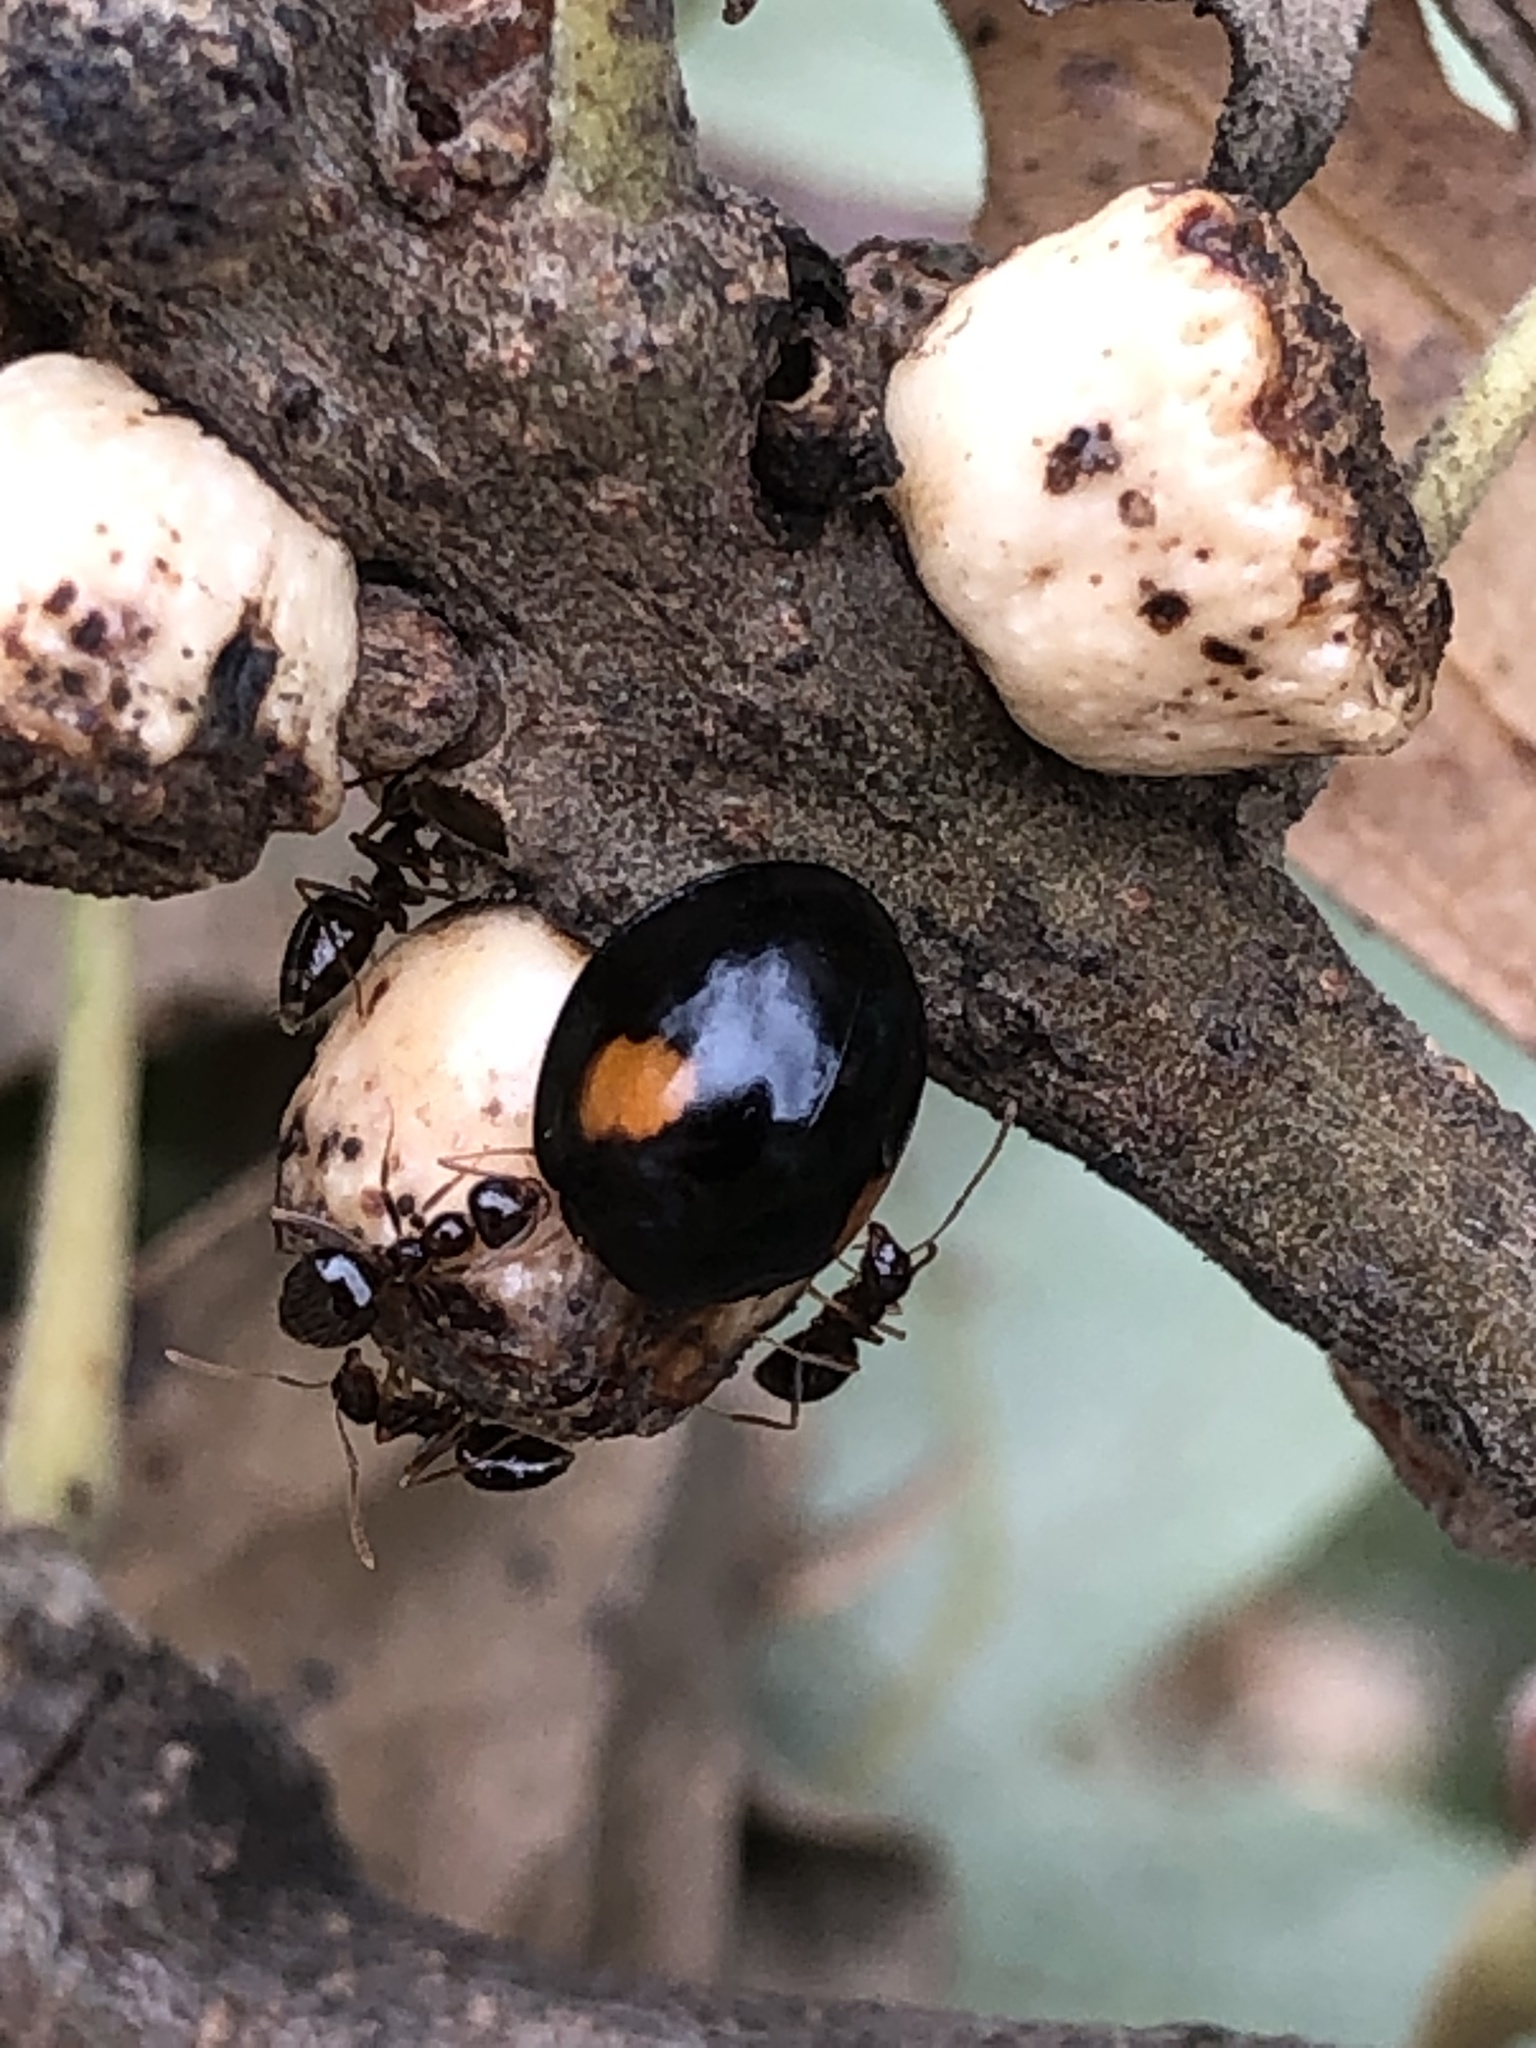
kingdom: Animalia
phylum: Arthropoda
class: Insecta
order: Hymenoptera
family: Cynipidae
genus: Disholcaspis
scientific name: Disholcaspis
